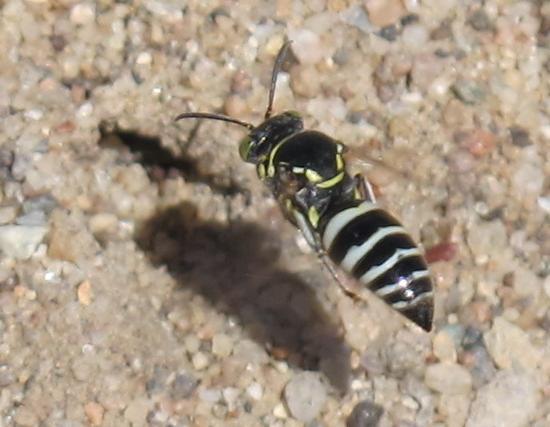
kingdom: Animalia
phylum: Arthropoda
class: Insecta
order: Hymenoptera
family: Crabronidae
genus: Bembecinus
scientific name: Bembecinus
